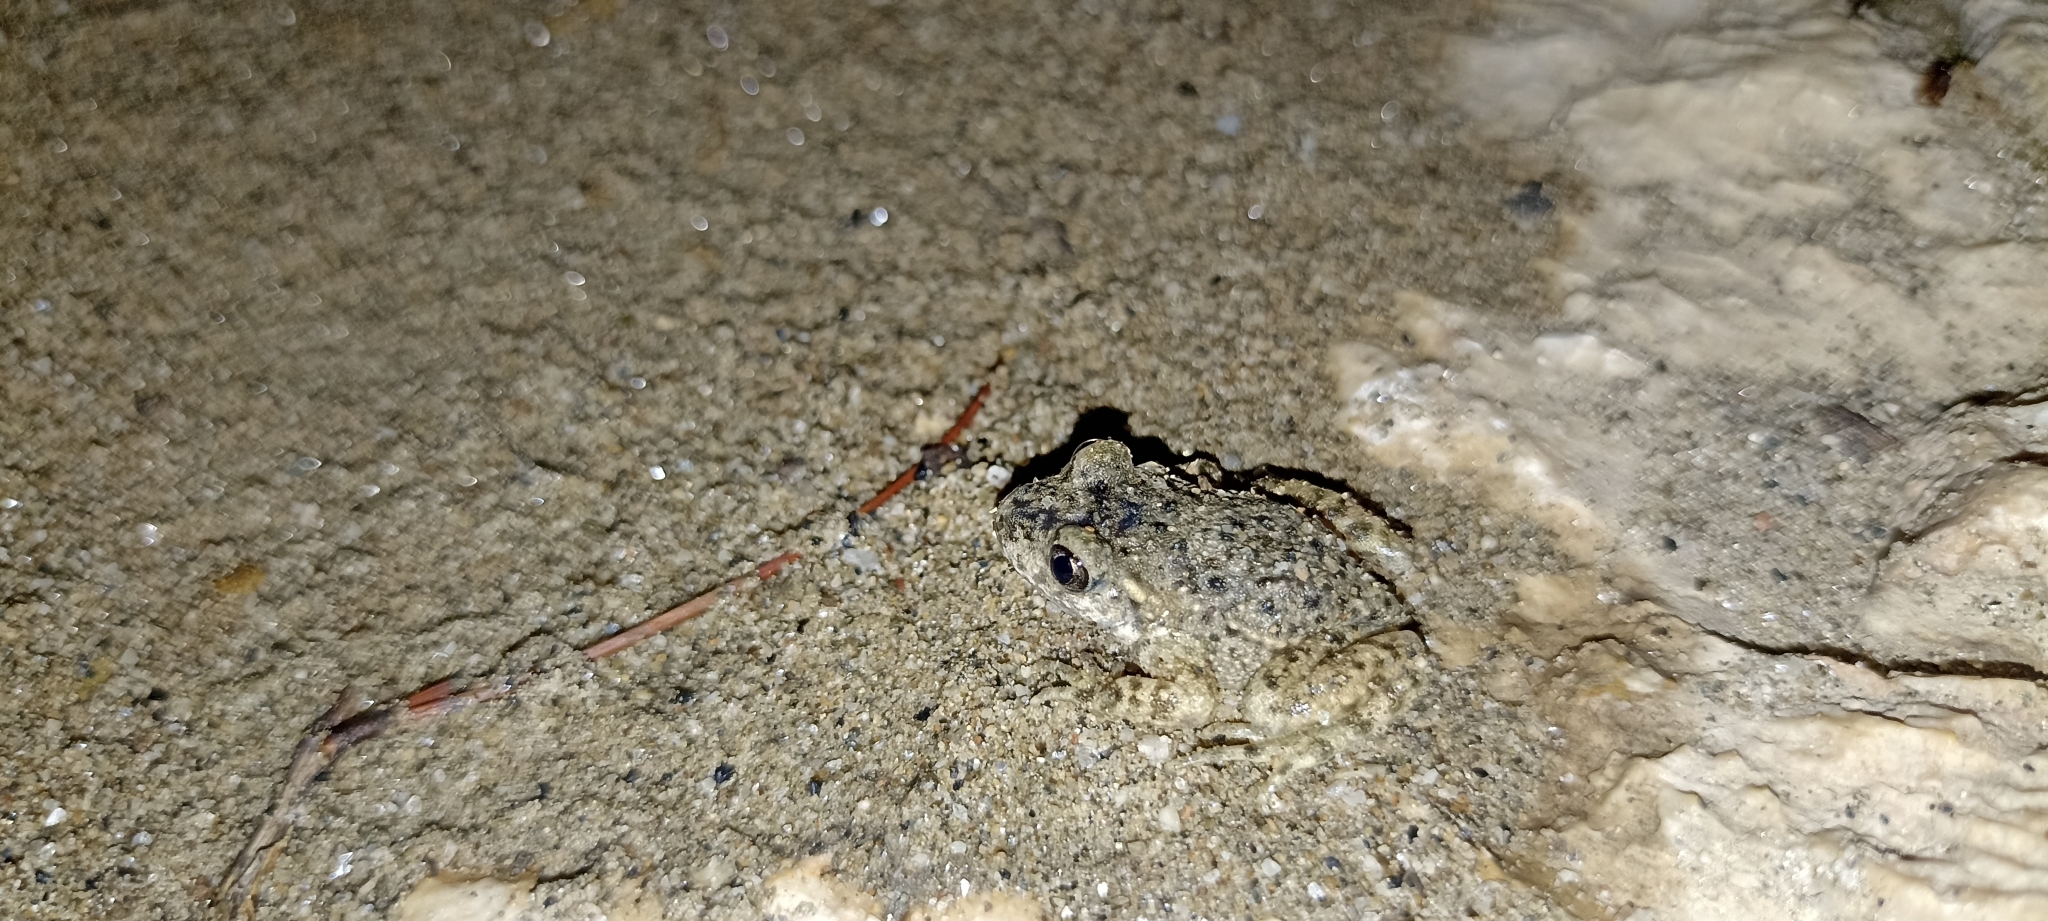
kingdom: Animalia
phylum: Chordata
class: Amphibia
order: Anura
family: Alytidae
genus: Alytes
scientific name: Alytes obstetricans
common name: Midwife toad
